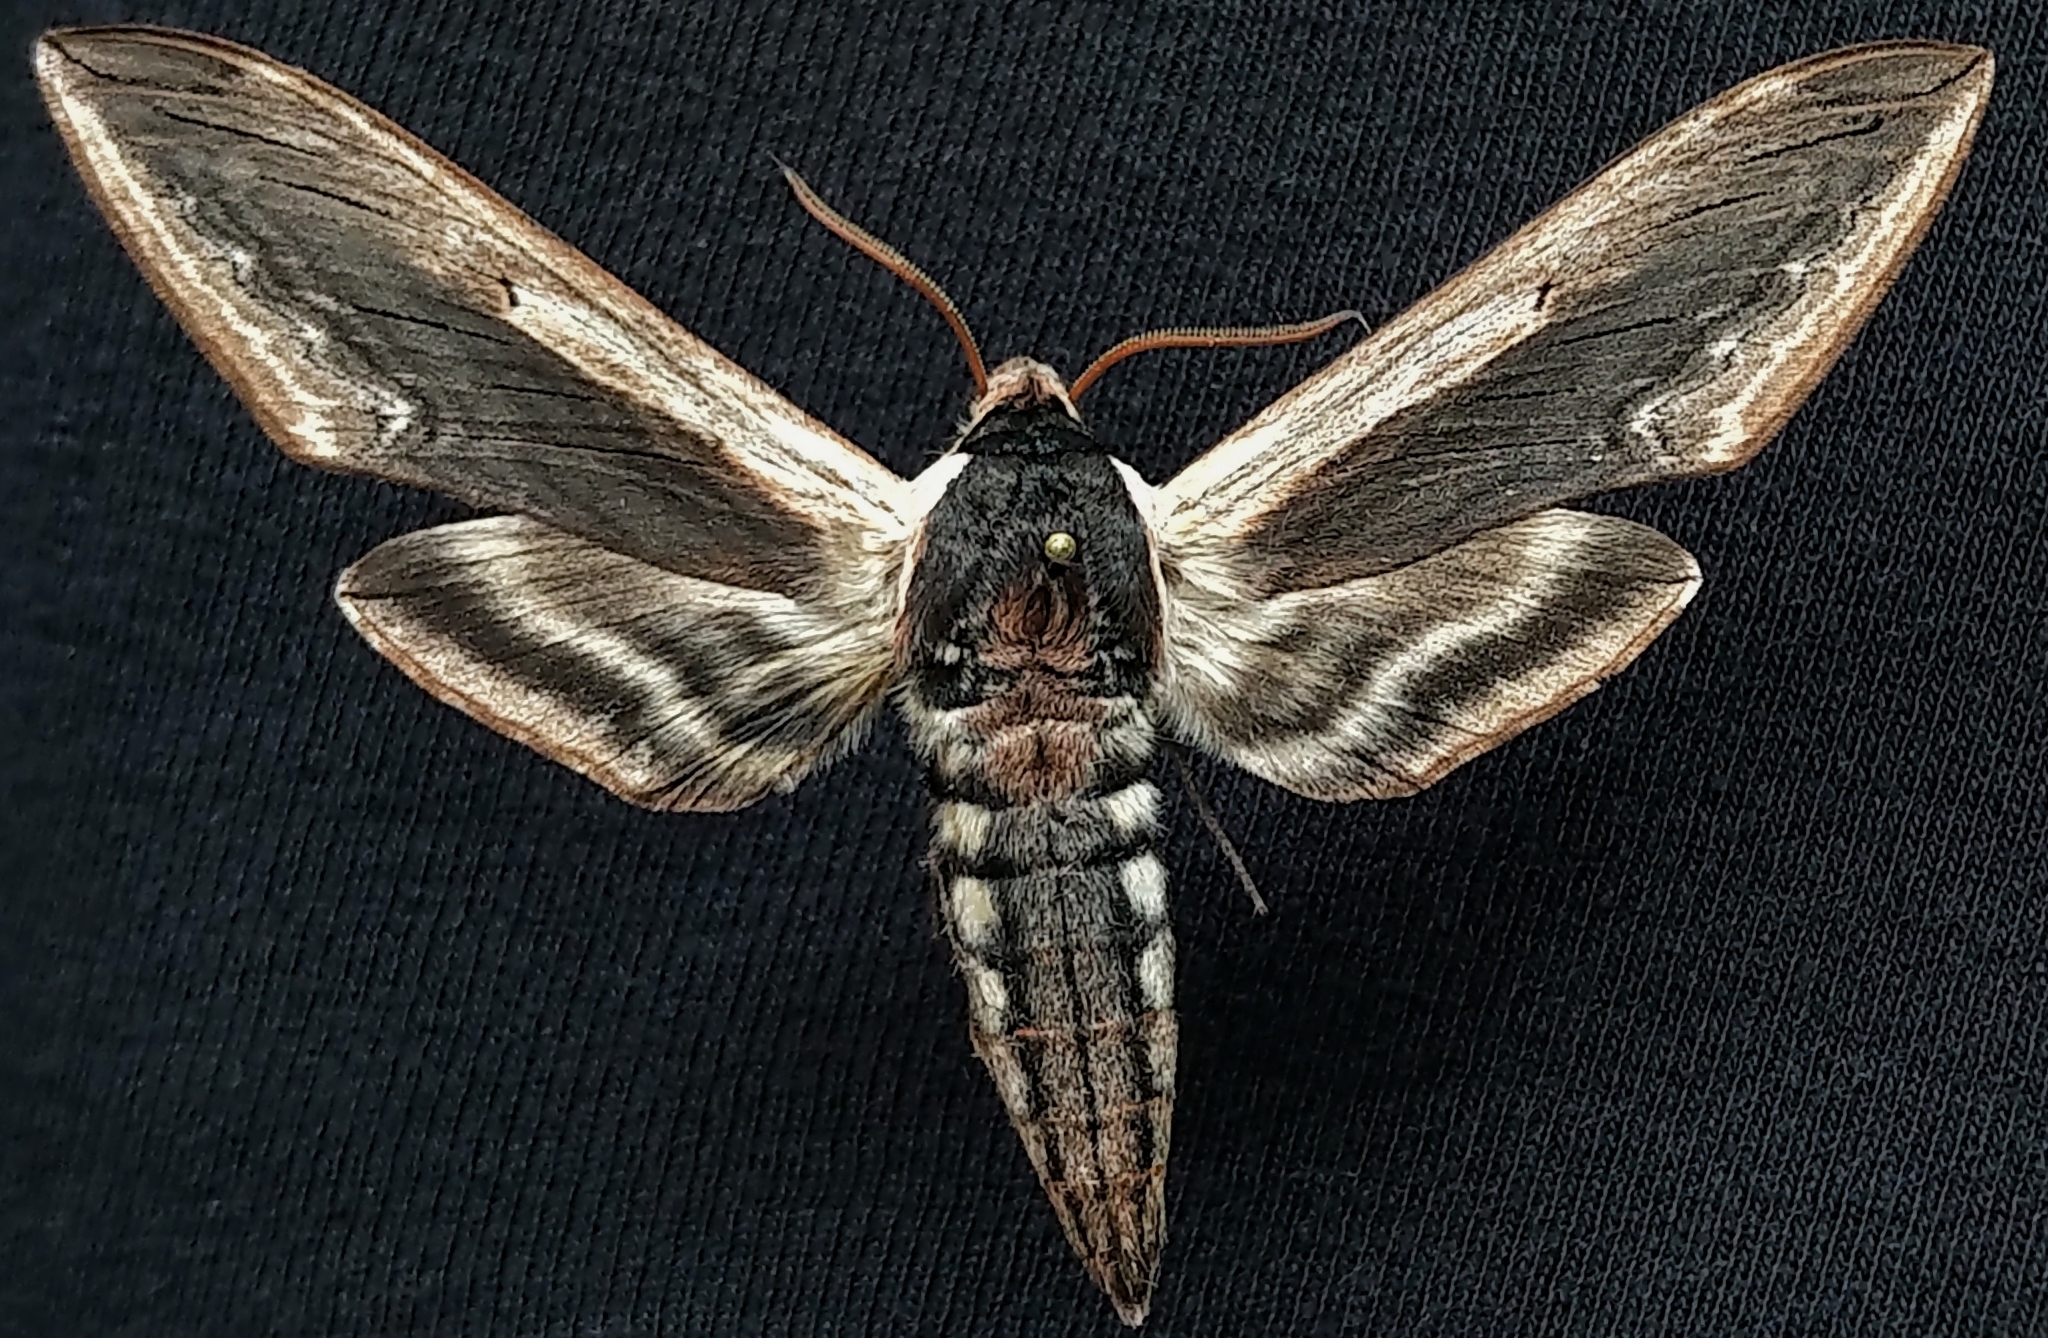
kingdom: Animalia
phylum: Arthropoda
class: Insecta
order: Lepidoptera
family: Sphingidae
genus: Sphinx
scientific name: Sphinx drupiferarum
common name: Wild cherry sphinx
